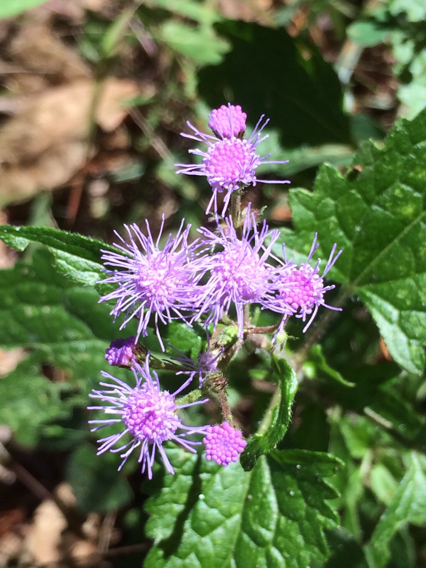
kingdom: Plantae
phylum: Tracheophyta
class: Magnoliopsida
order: Asterales
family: Asteraceae
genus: Conoclinium
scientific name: Conoclinium coelestinum
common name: Blue mistflower
